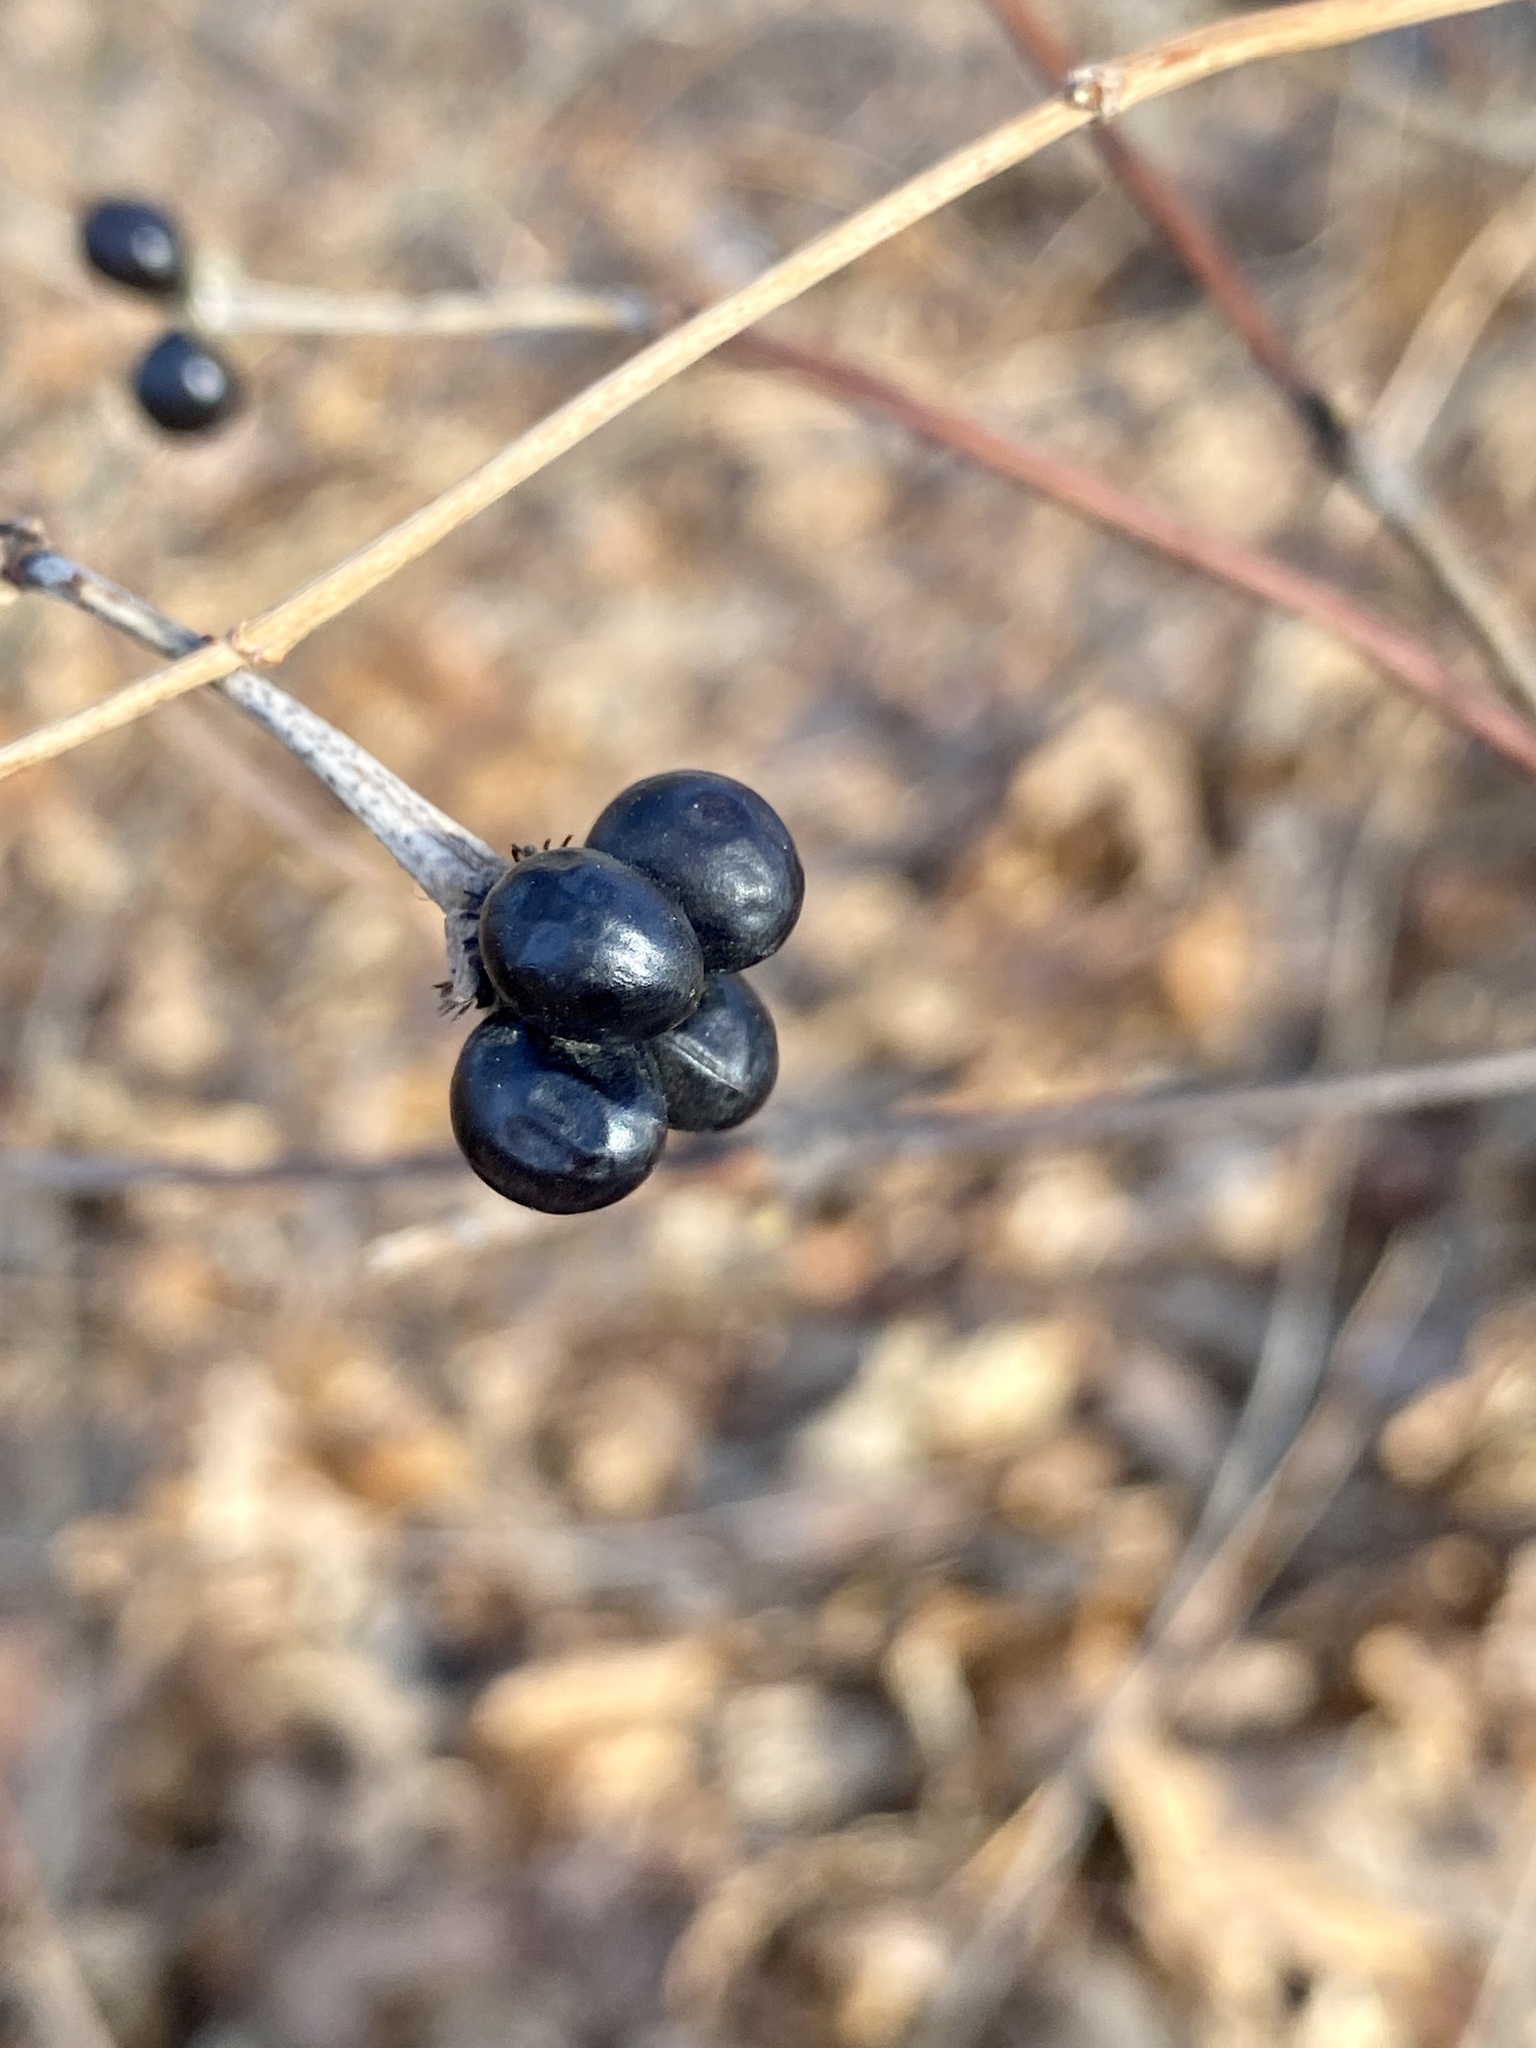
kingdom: Plantae
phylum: Tracheophyta
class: Magnoliopsida
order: Rosales
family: Rosaceae
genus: Rhodotypos
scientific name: Rhodotypos scandens
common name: Jetbead
